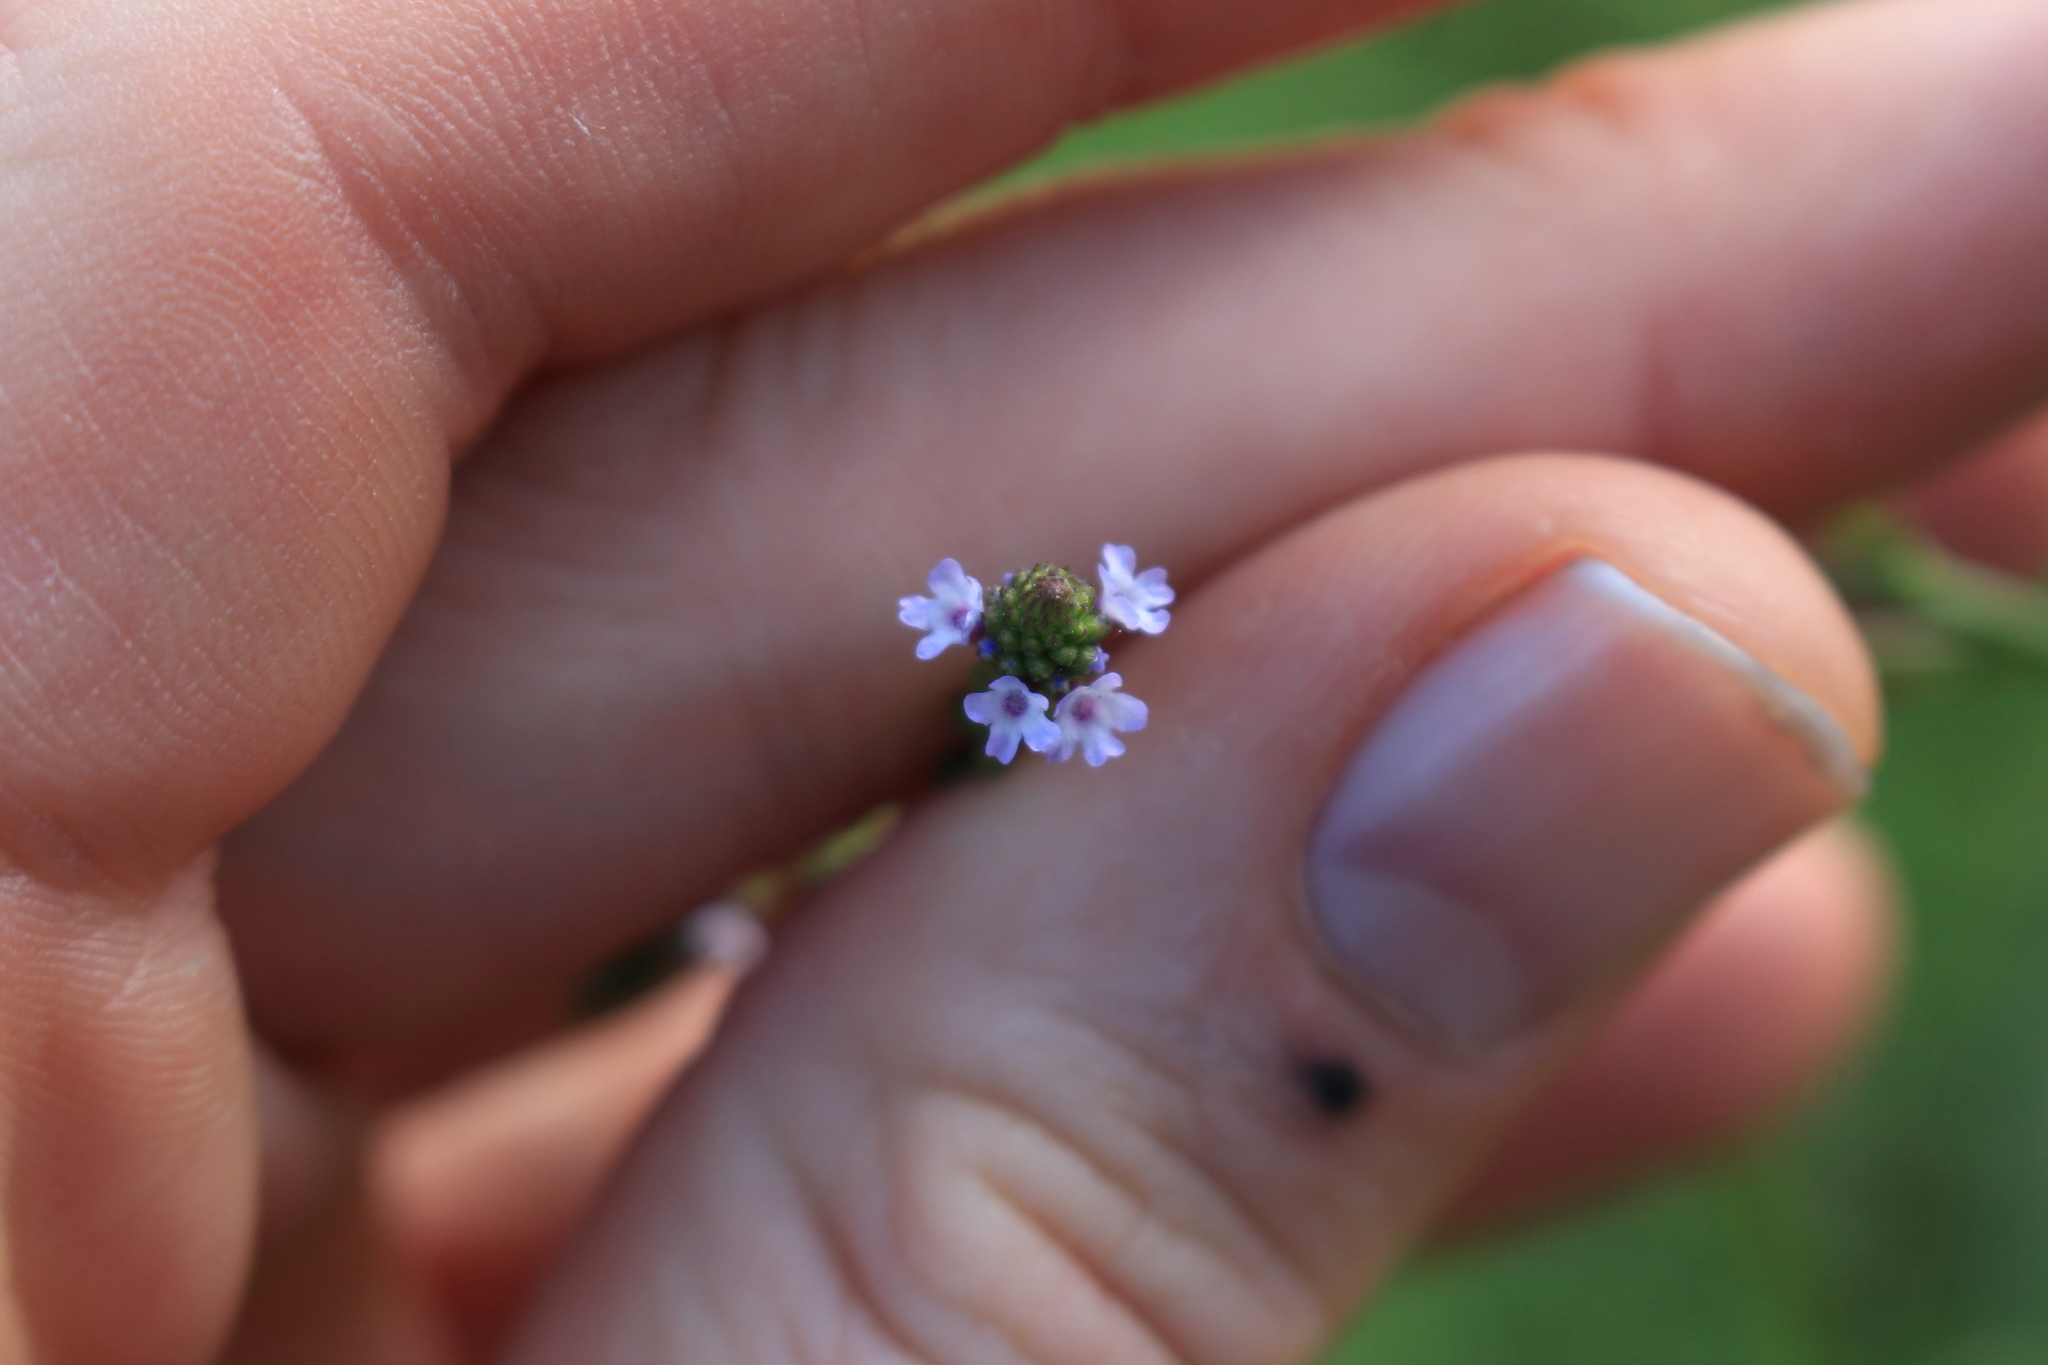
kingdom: Plantae
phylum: Tracheophyta
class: Magnoliopsida
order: Lamiales
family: Verbenaceae
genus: Verbena
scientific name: Verbena litoralis
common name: Seashore vervain
